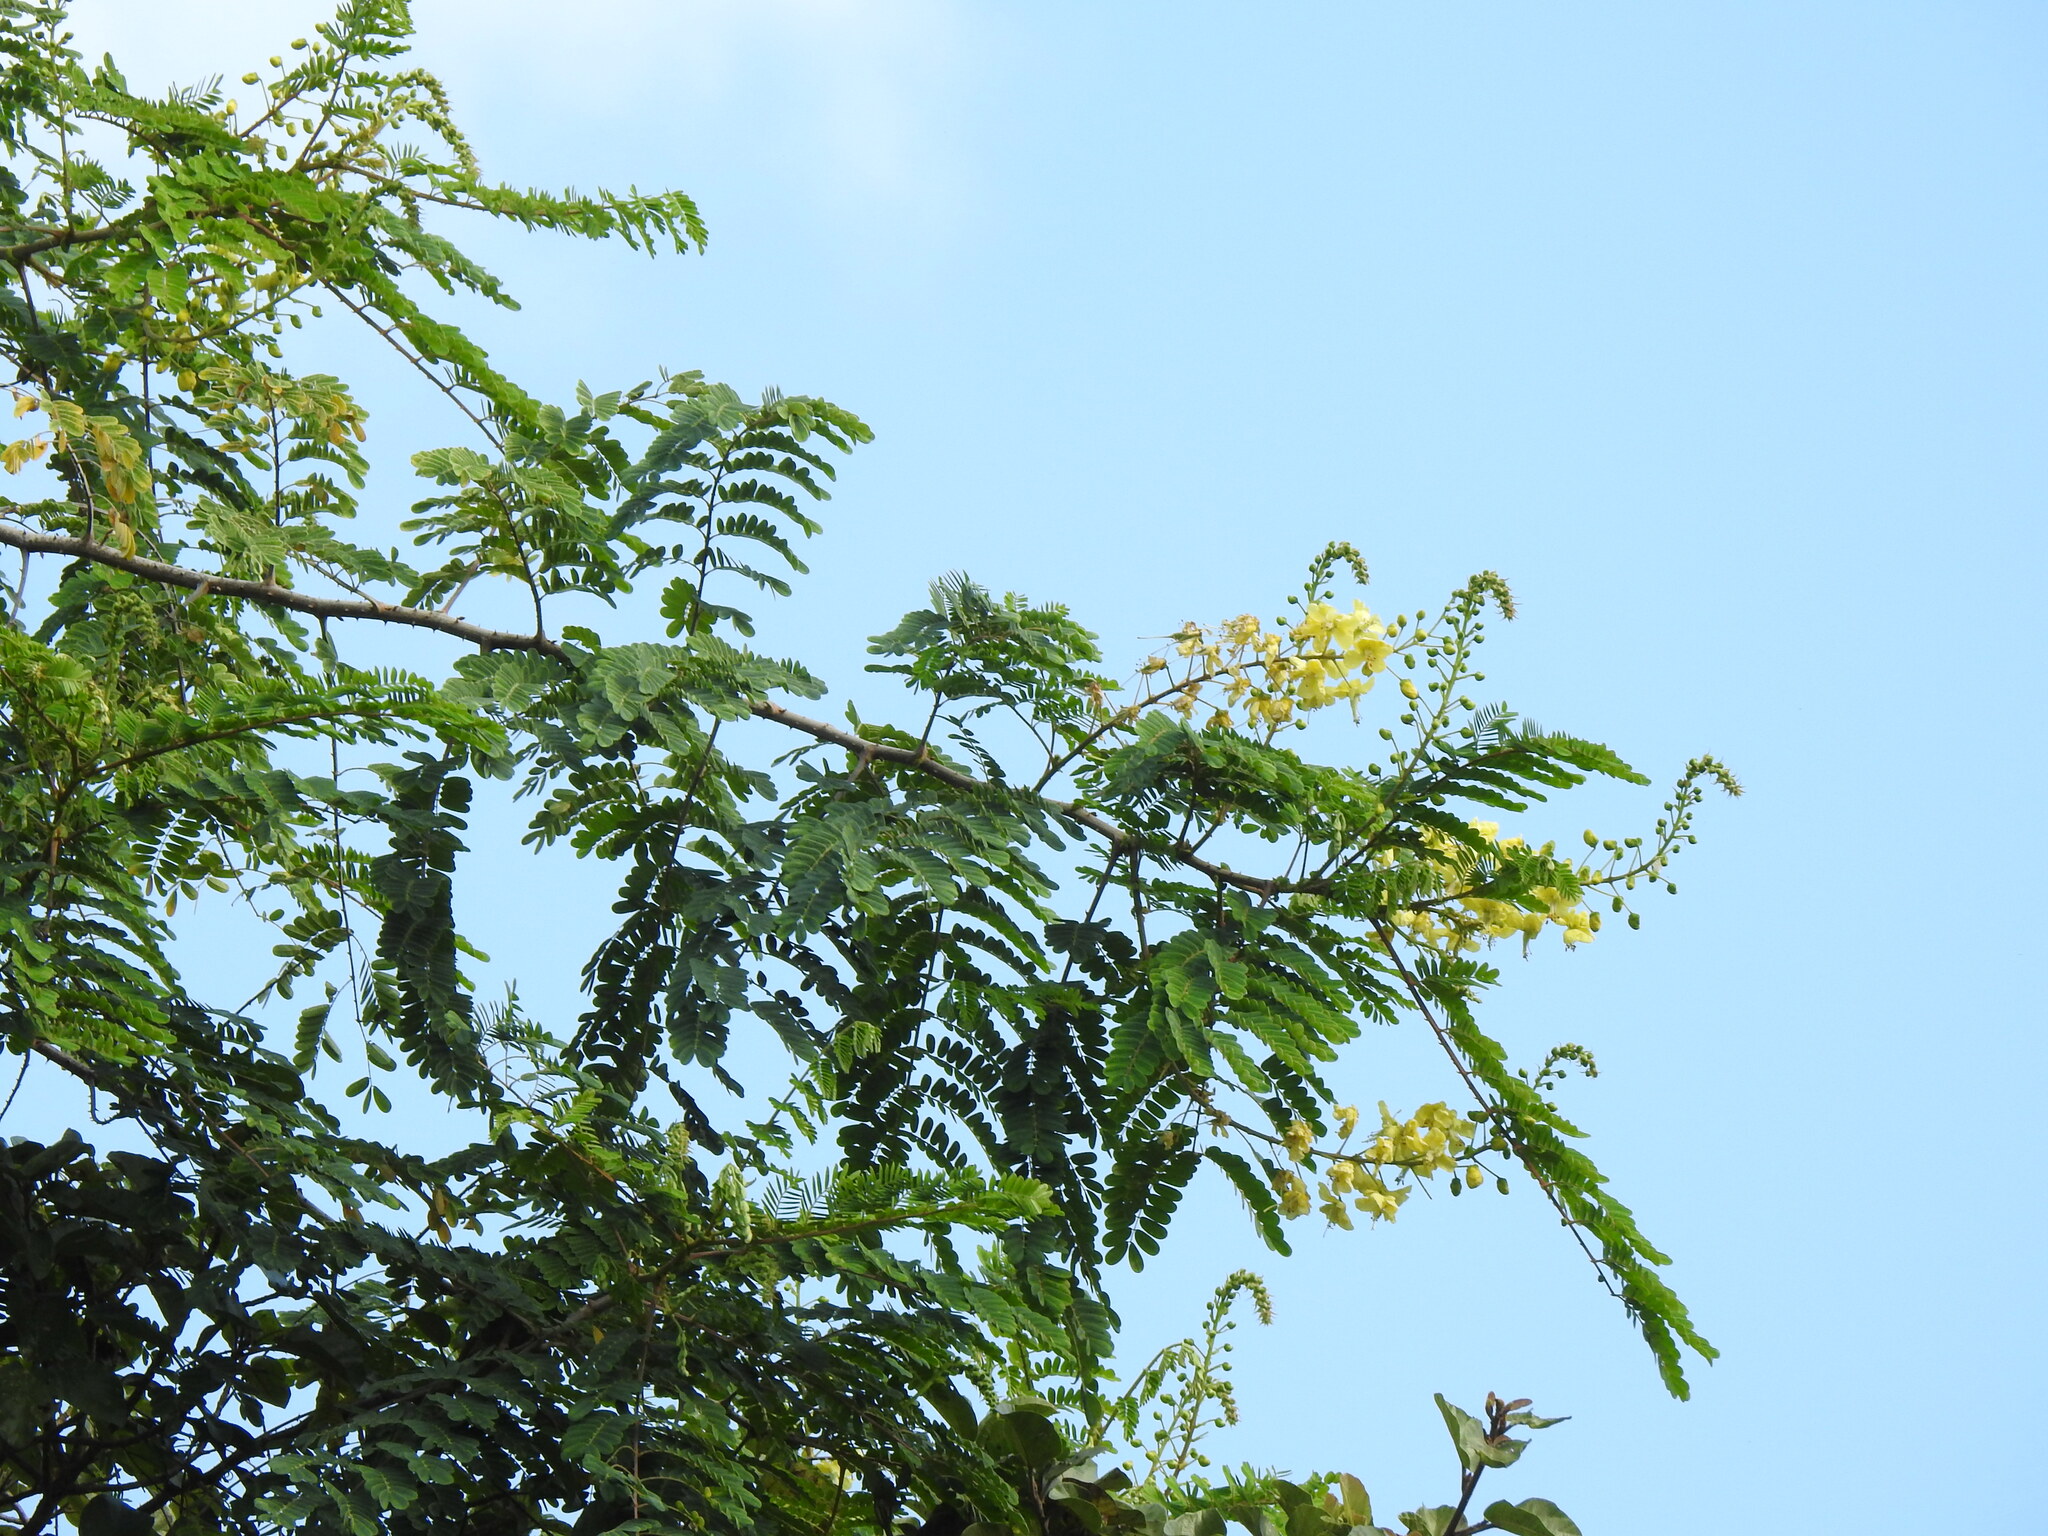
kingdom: Plantae
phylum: Tracheophyta
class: Magnoliopsida
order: Fabales
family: Fabaceae
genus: Biancaea
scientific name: Biancaea decapetala
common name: Cat's claw
